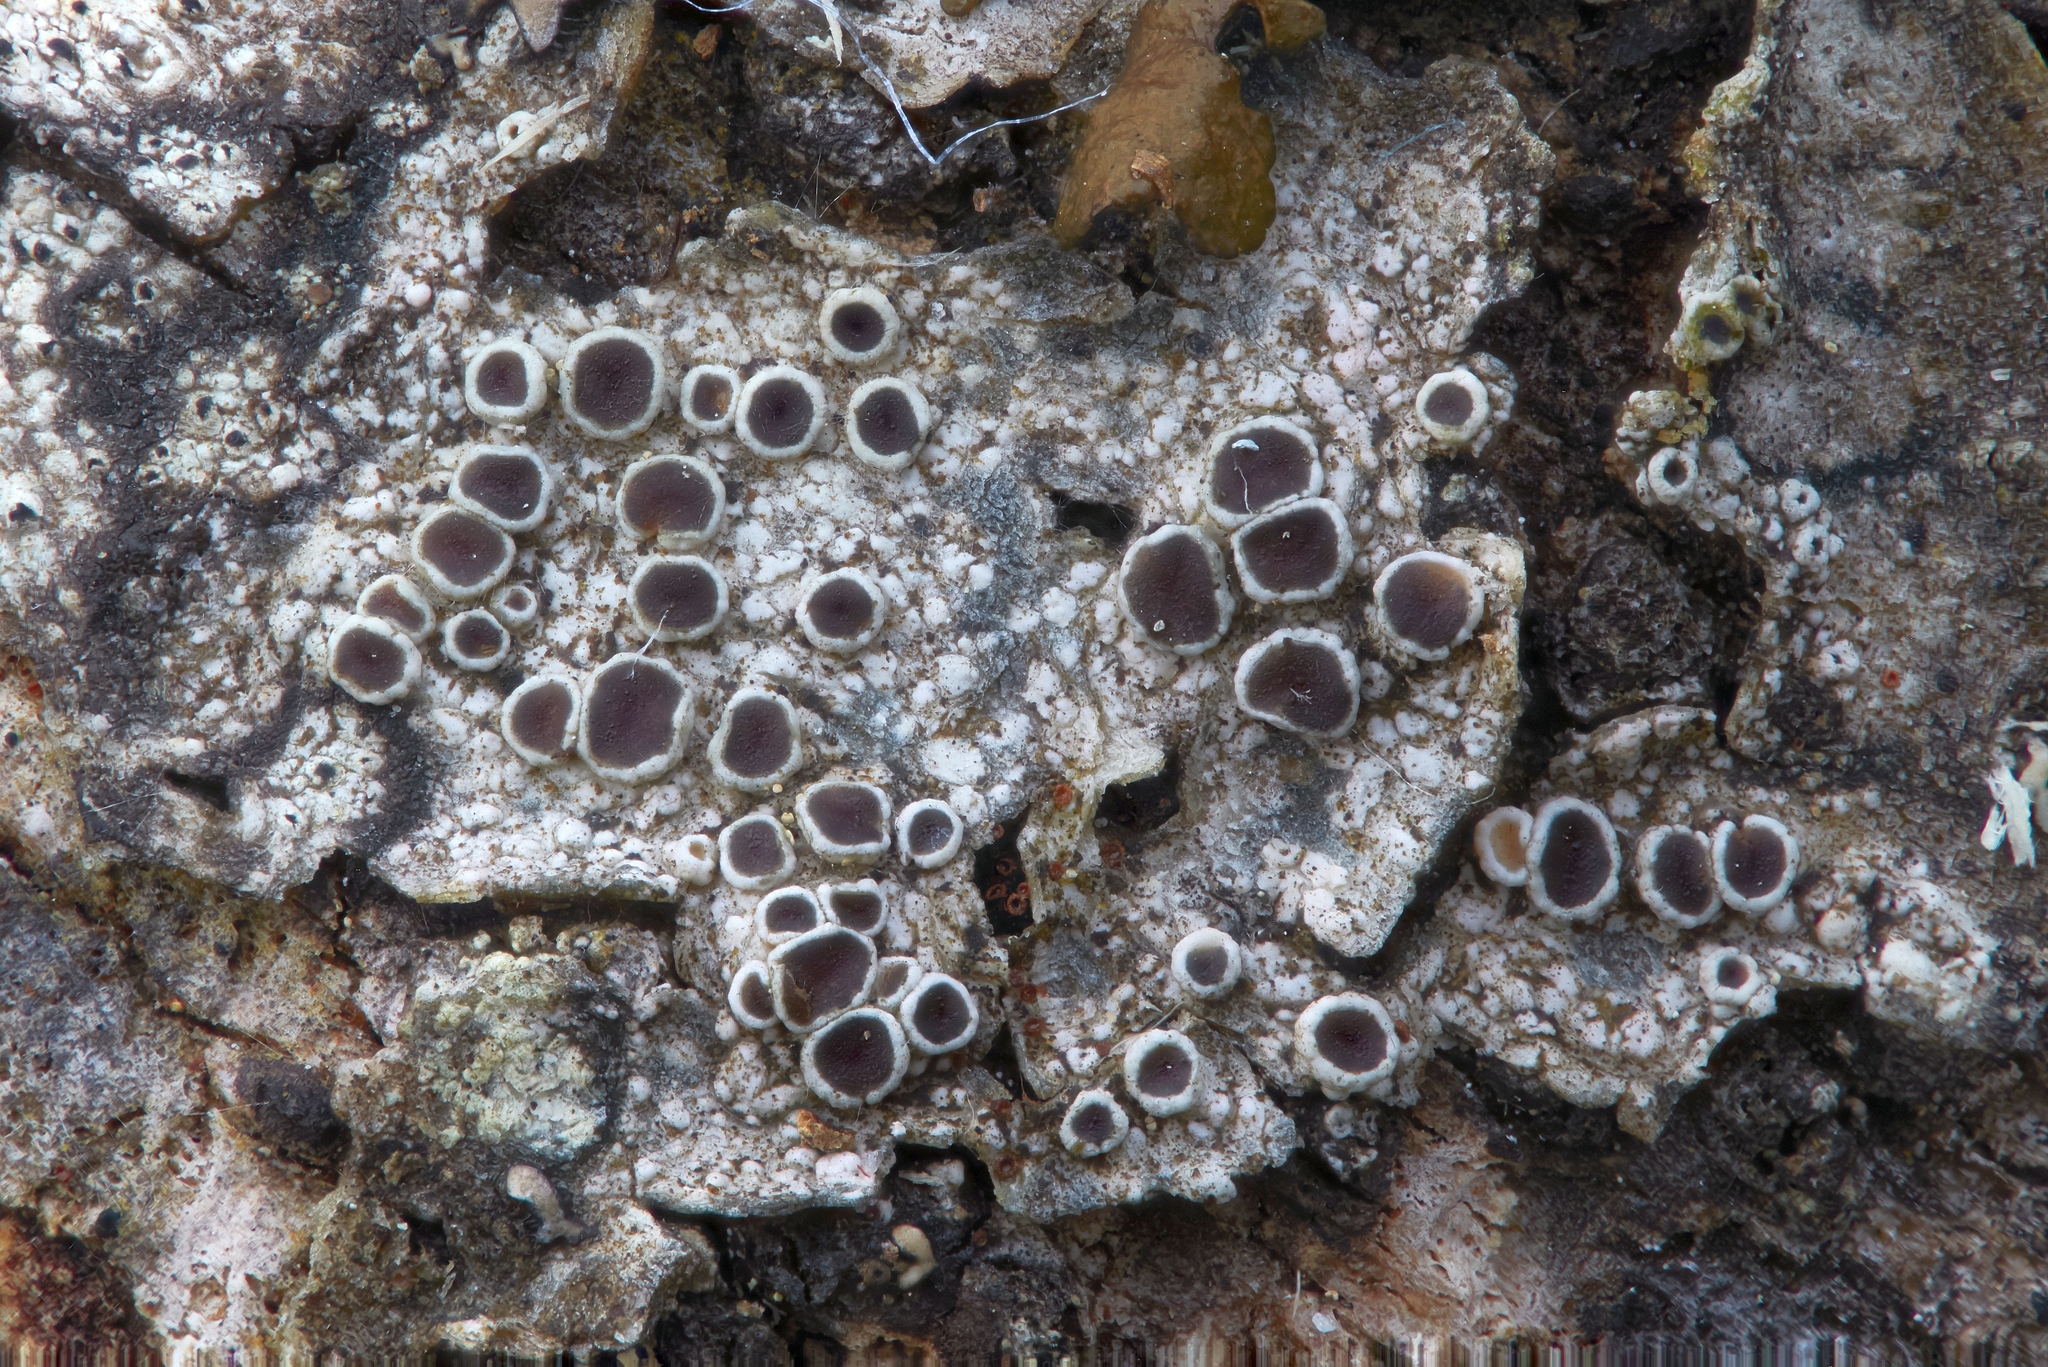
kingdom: Fungi
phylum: Ascomycota
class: Lecanoromycetes
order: Lecanorales
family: Lecanoraceae
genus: Lecanora
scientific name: Lecanora pulicaris
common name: Common rim lichen
